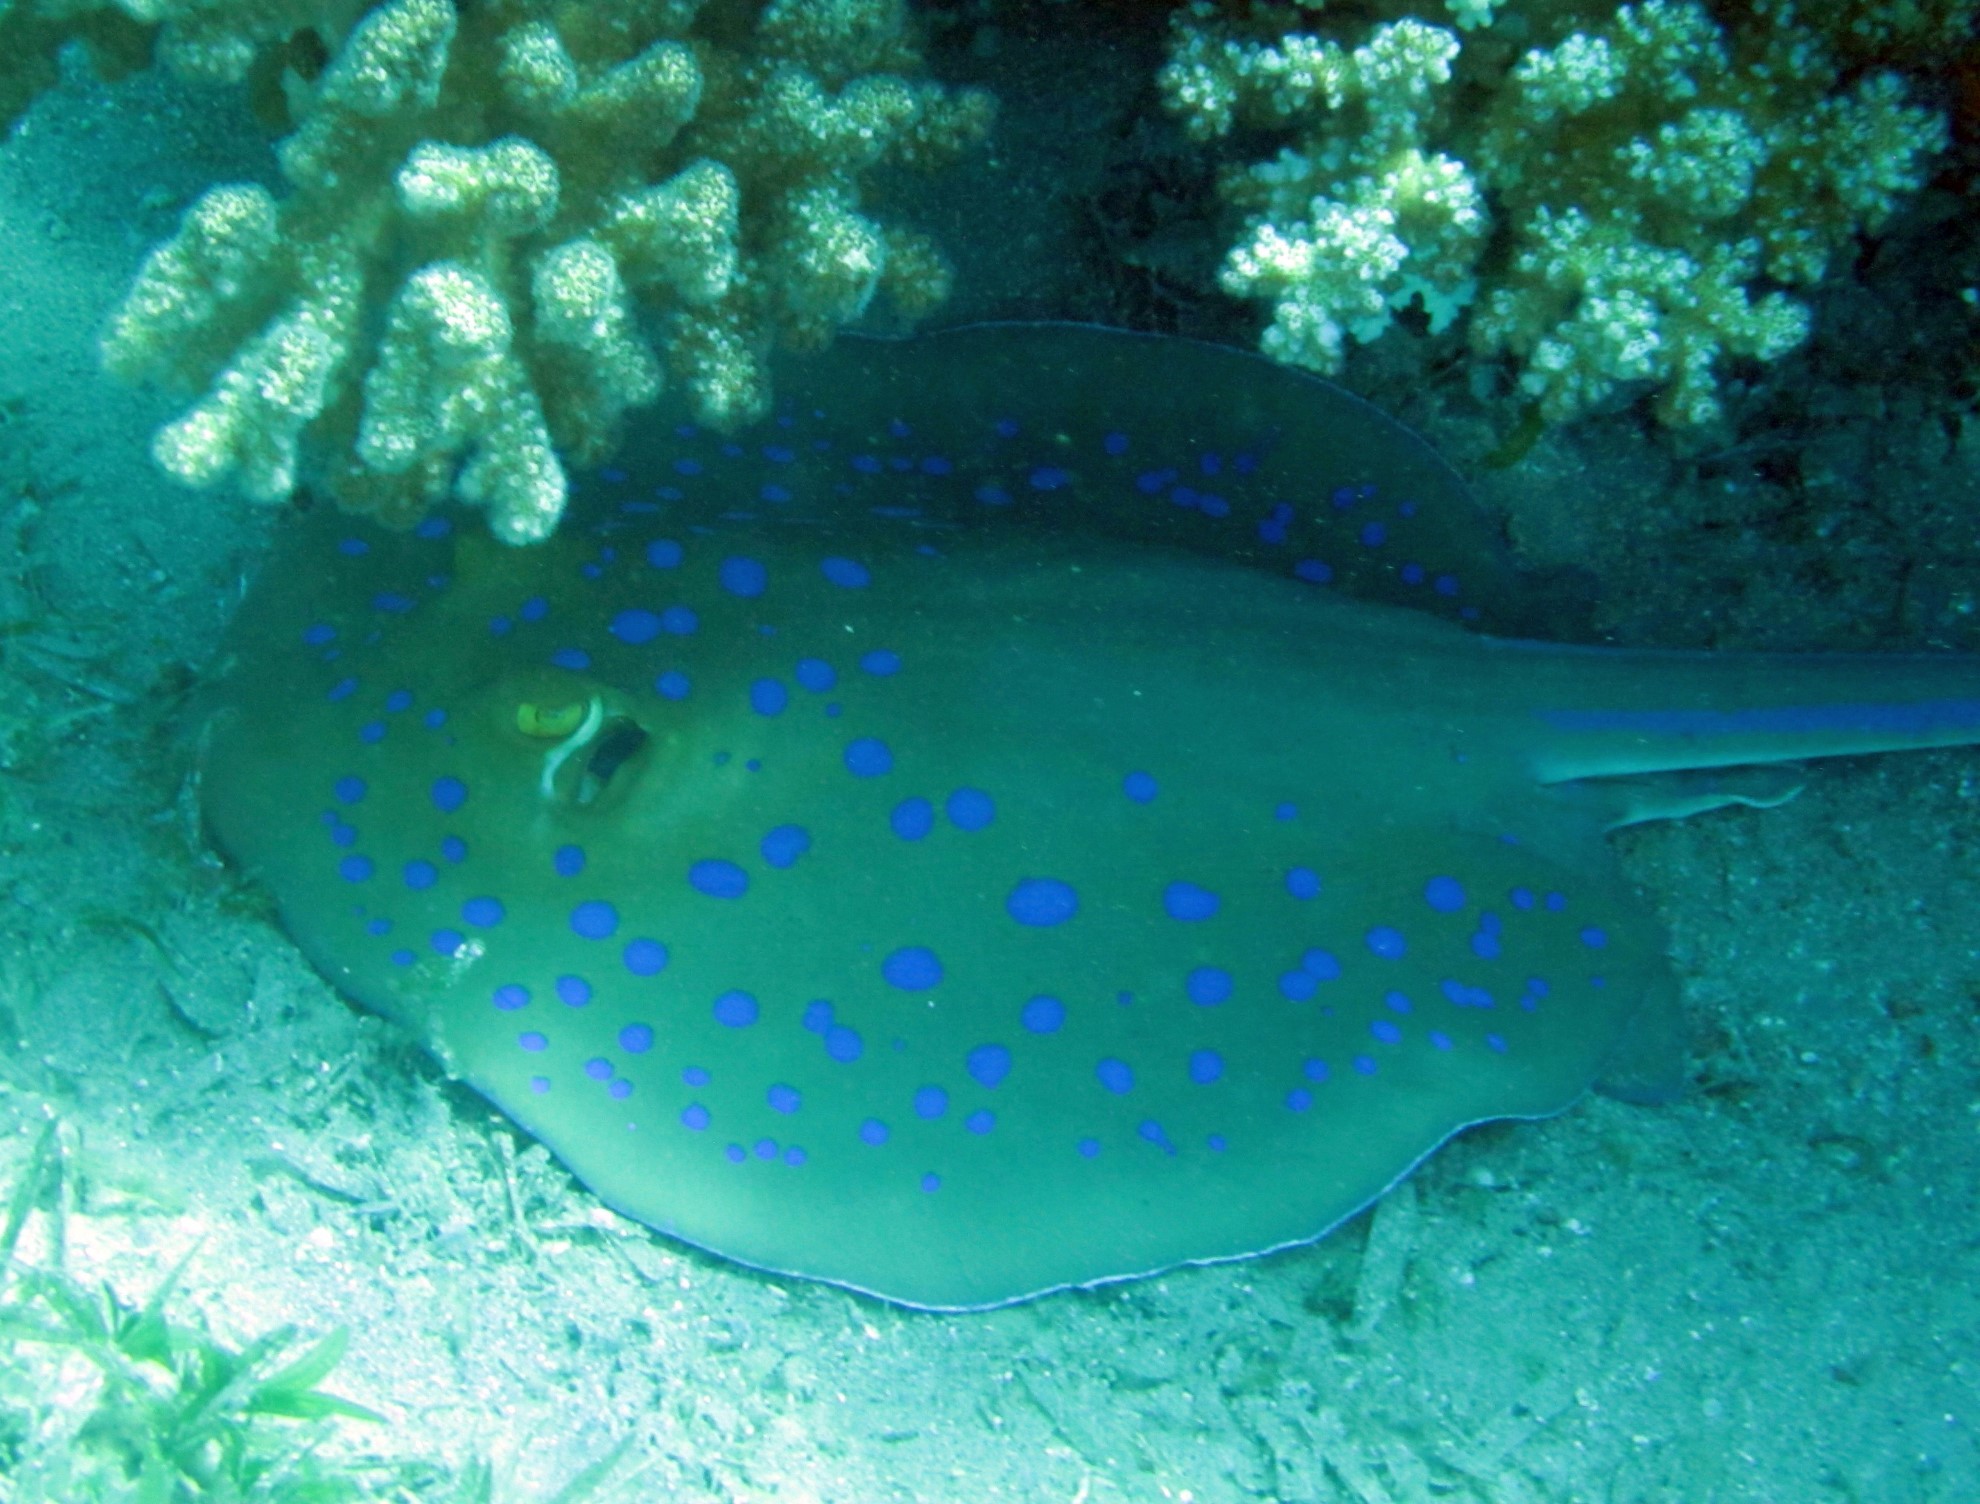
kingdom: Animalia
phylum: Chordata
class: Elasmobranchii
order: Myliobatiformes
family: Dasyatidae
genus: Taeniura
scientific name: Taeniura lymma
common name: Bluespotted ribbontail ray
